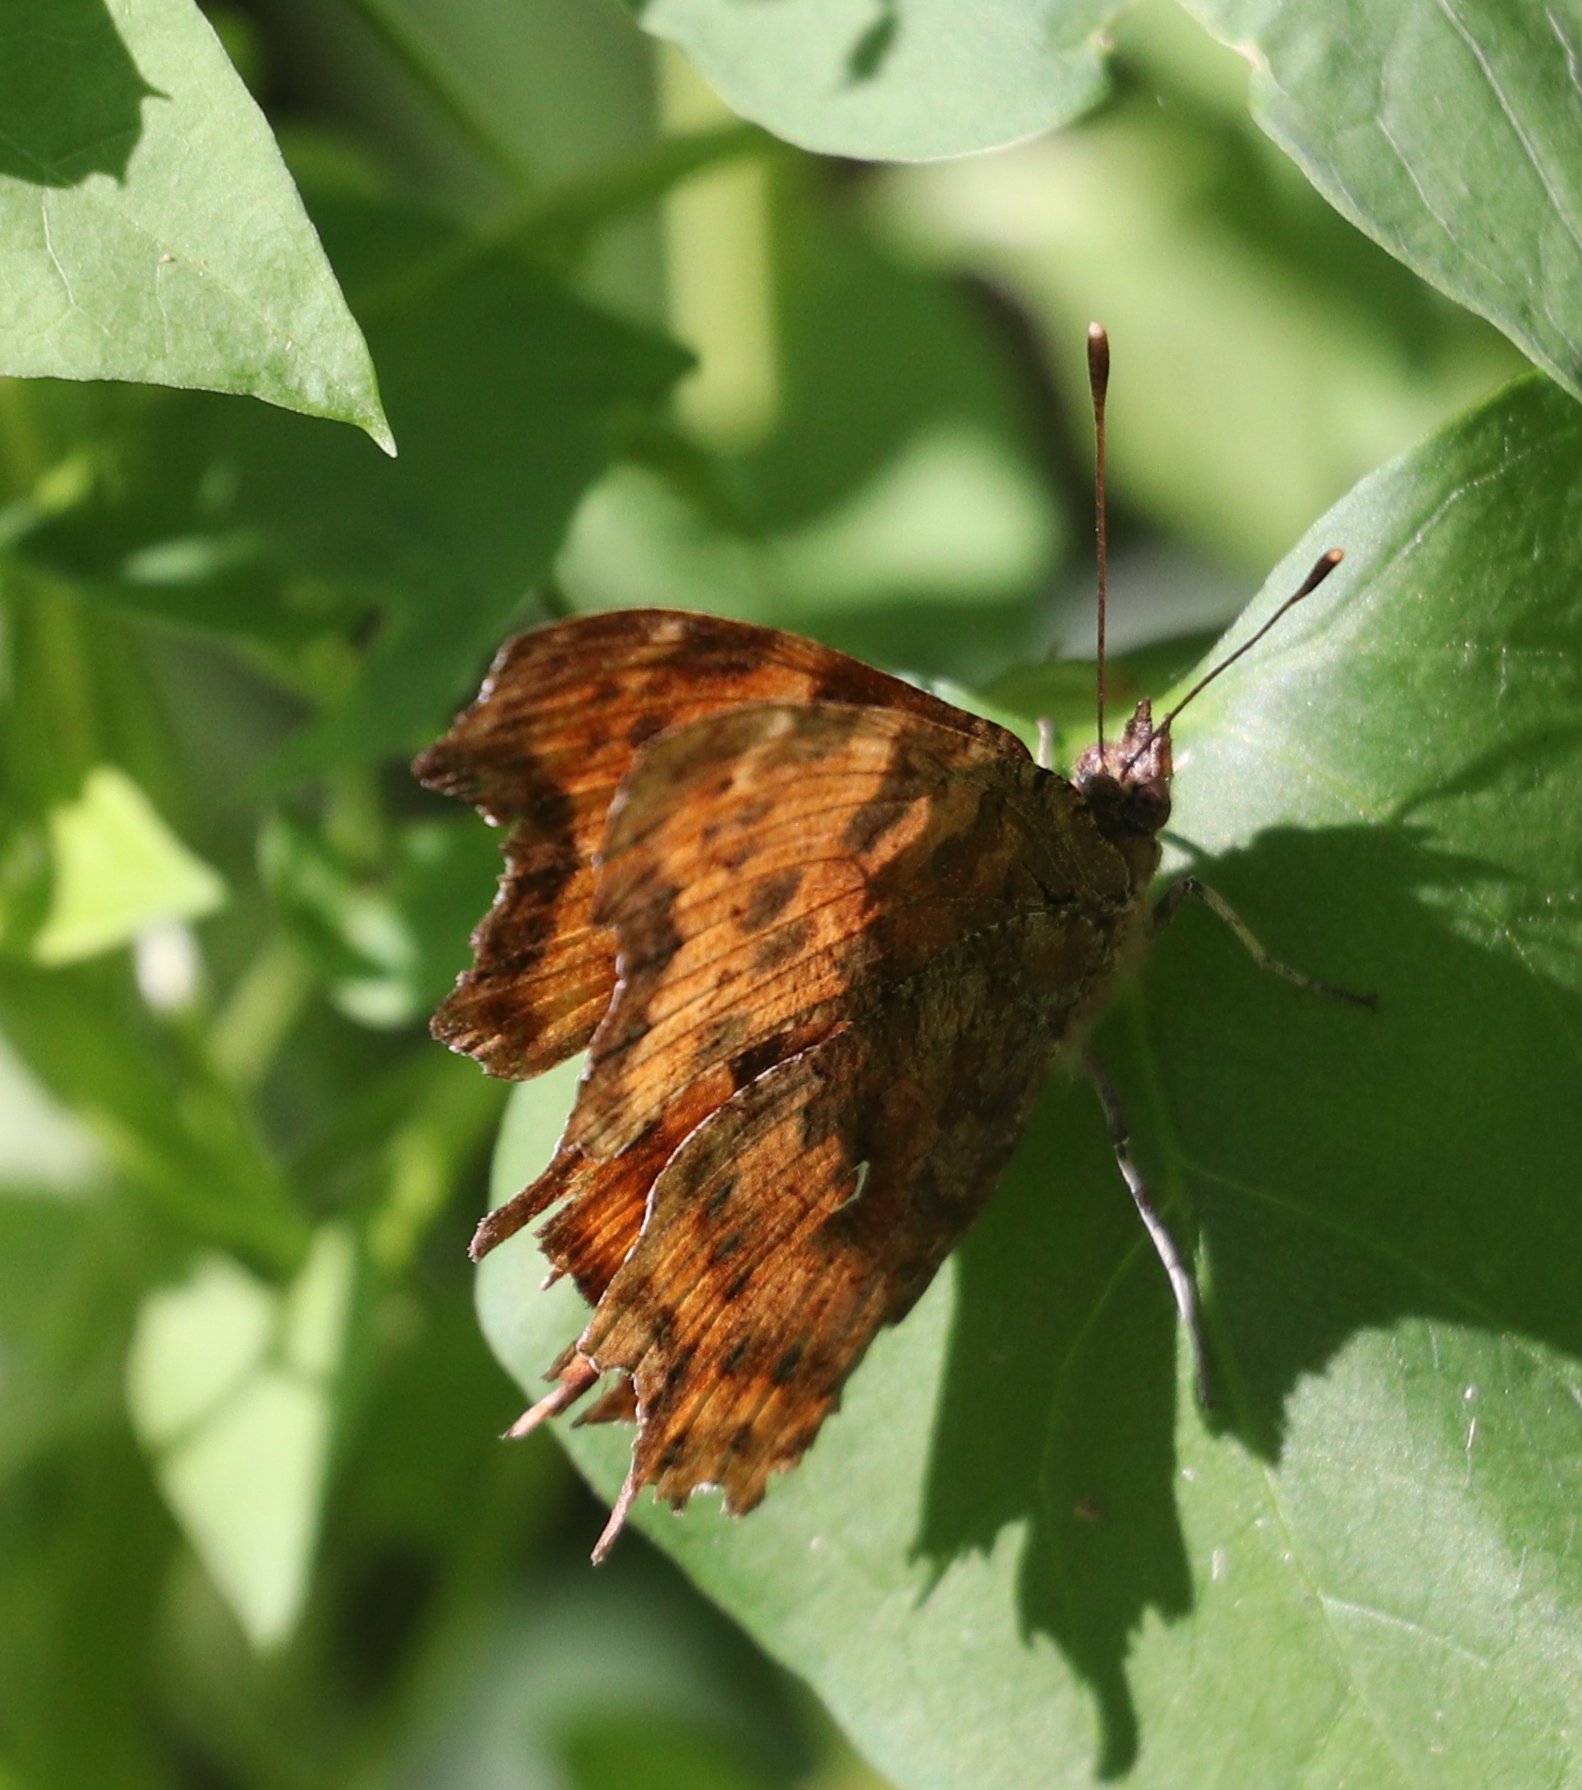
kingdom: Animalia
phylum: Arthropoda
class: Insecta
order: Lepidoptera
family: Nymphalidae
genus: Polygonia
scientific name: Polygonia c-album
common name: Comma
